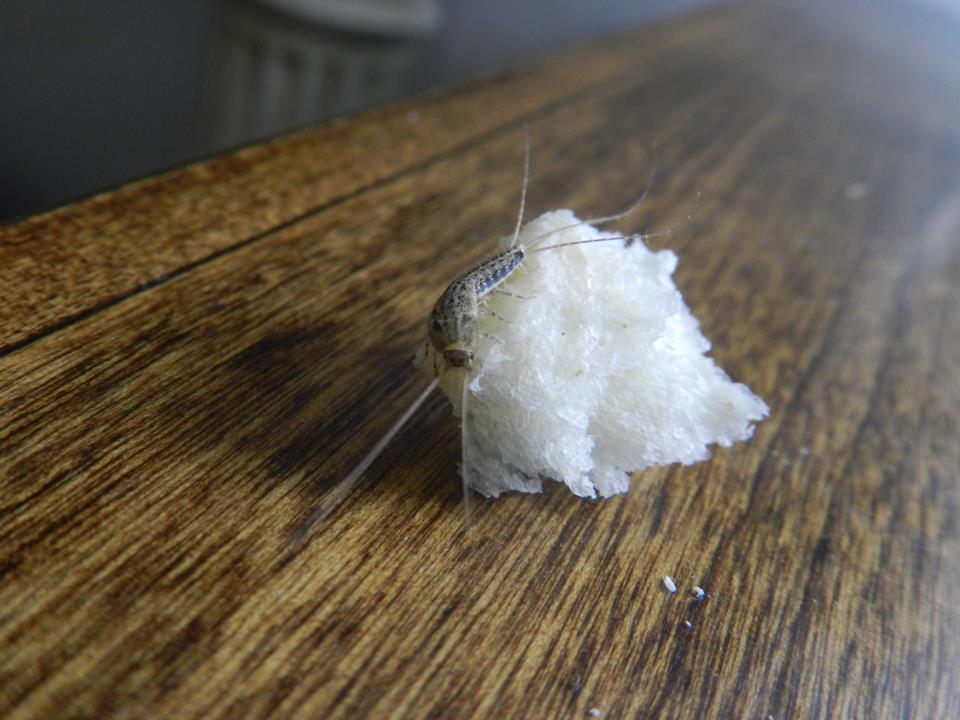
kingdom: Animalia
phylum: Arthropoda
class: Insecta
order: Zygentoma
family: Lepismatidae
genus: Ctenolepisma
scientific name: Ctenolepisma lineata
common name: Four-lined silverfish
